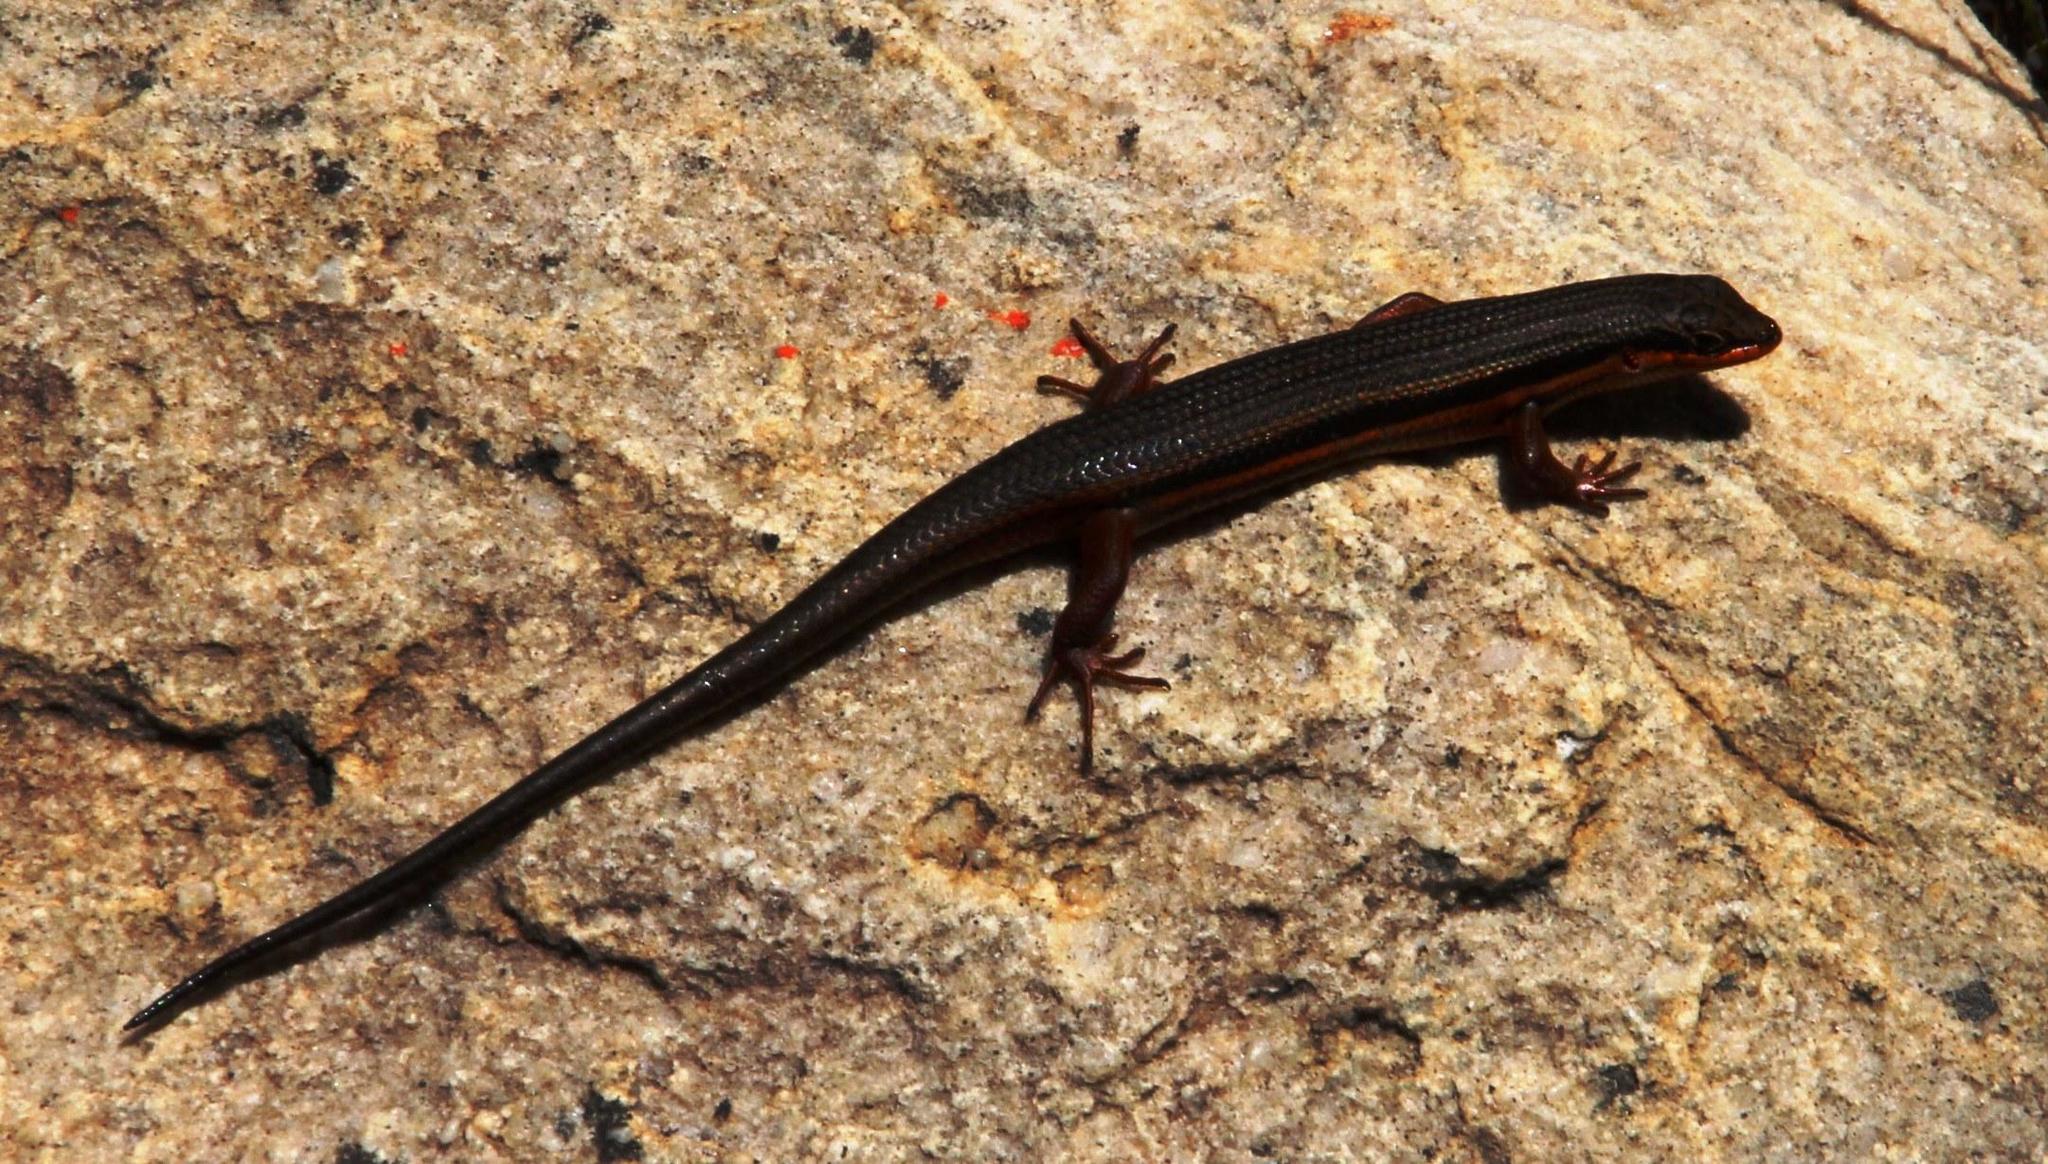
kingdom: Animalia
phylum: Chordata
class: Squamata
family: Scincidae
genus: Trachylepis
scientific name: Trachylepis homalocephala
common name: Red-sided skink
